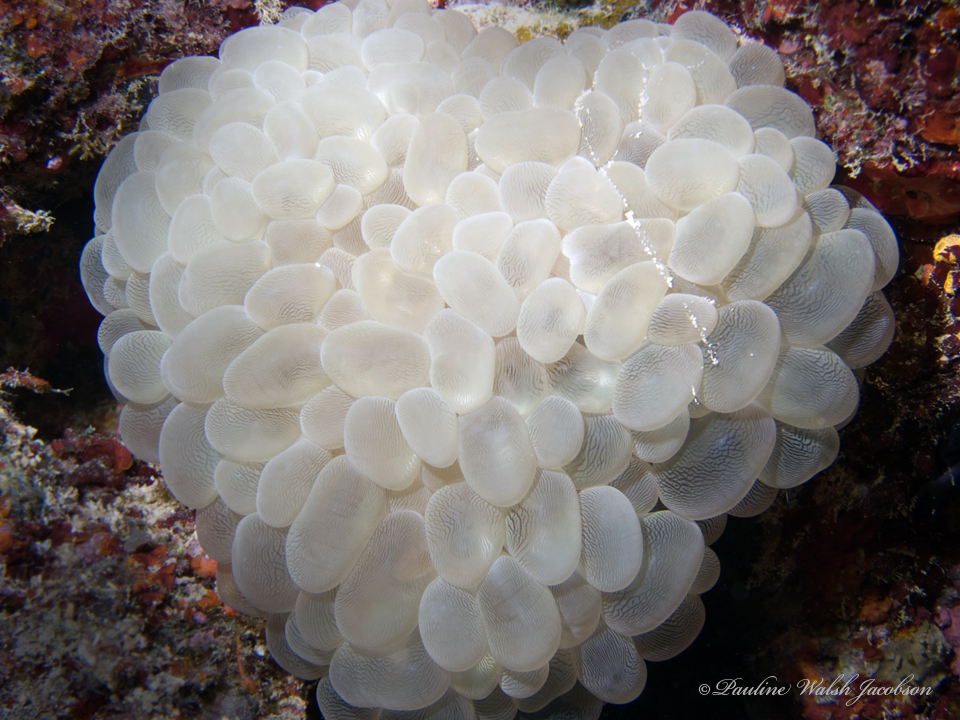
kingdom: Animalia
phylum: Cnidaria
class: Anthozoa
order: Scleractinia
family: Plerogyridae
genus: Plerogyra
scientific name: Plerogyra sinuosa
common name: Bubble coral
